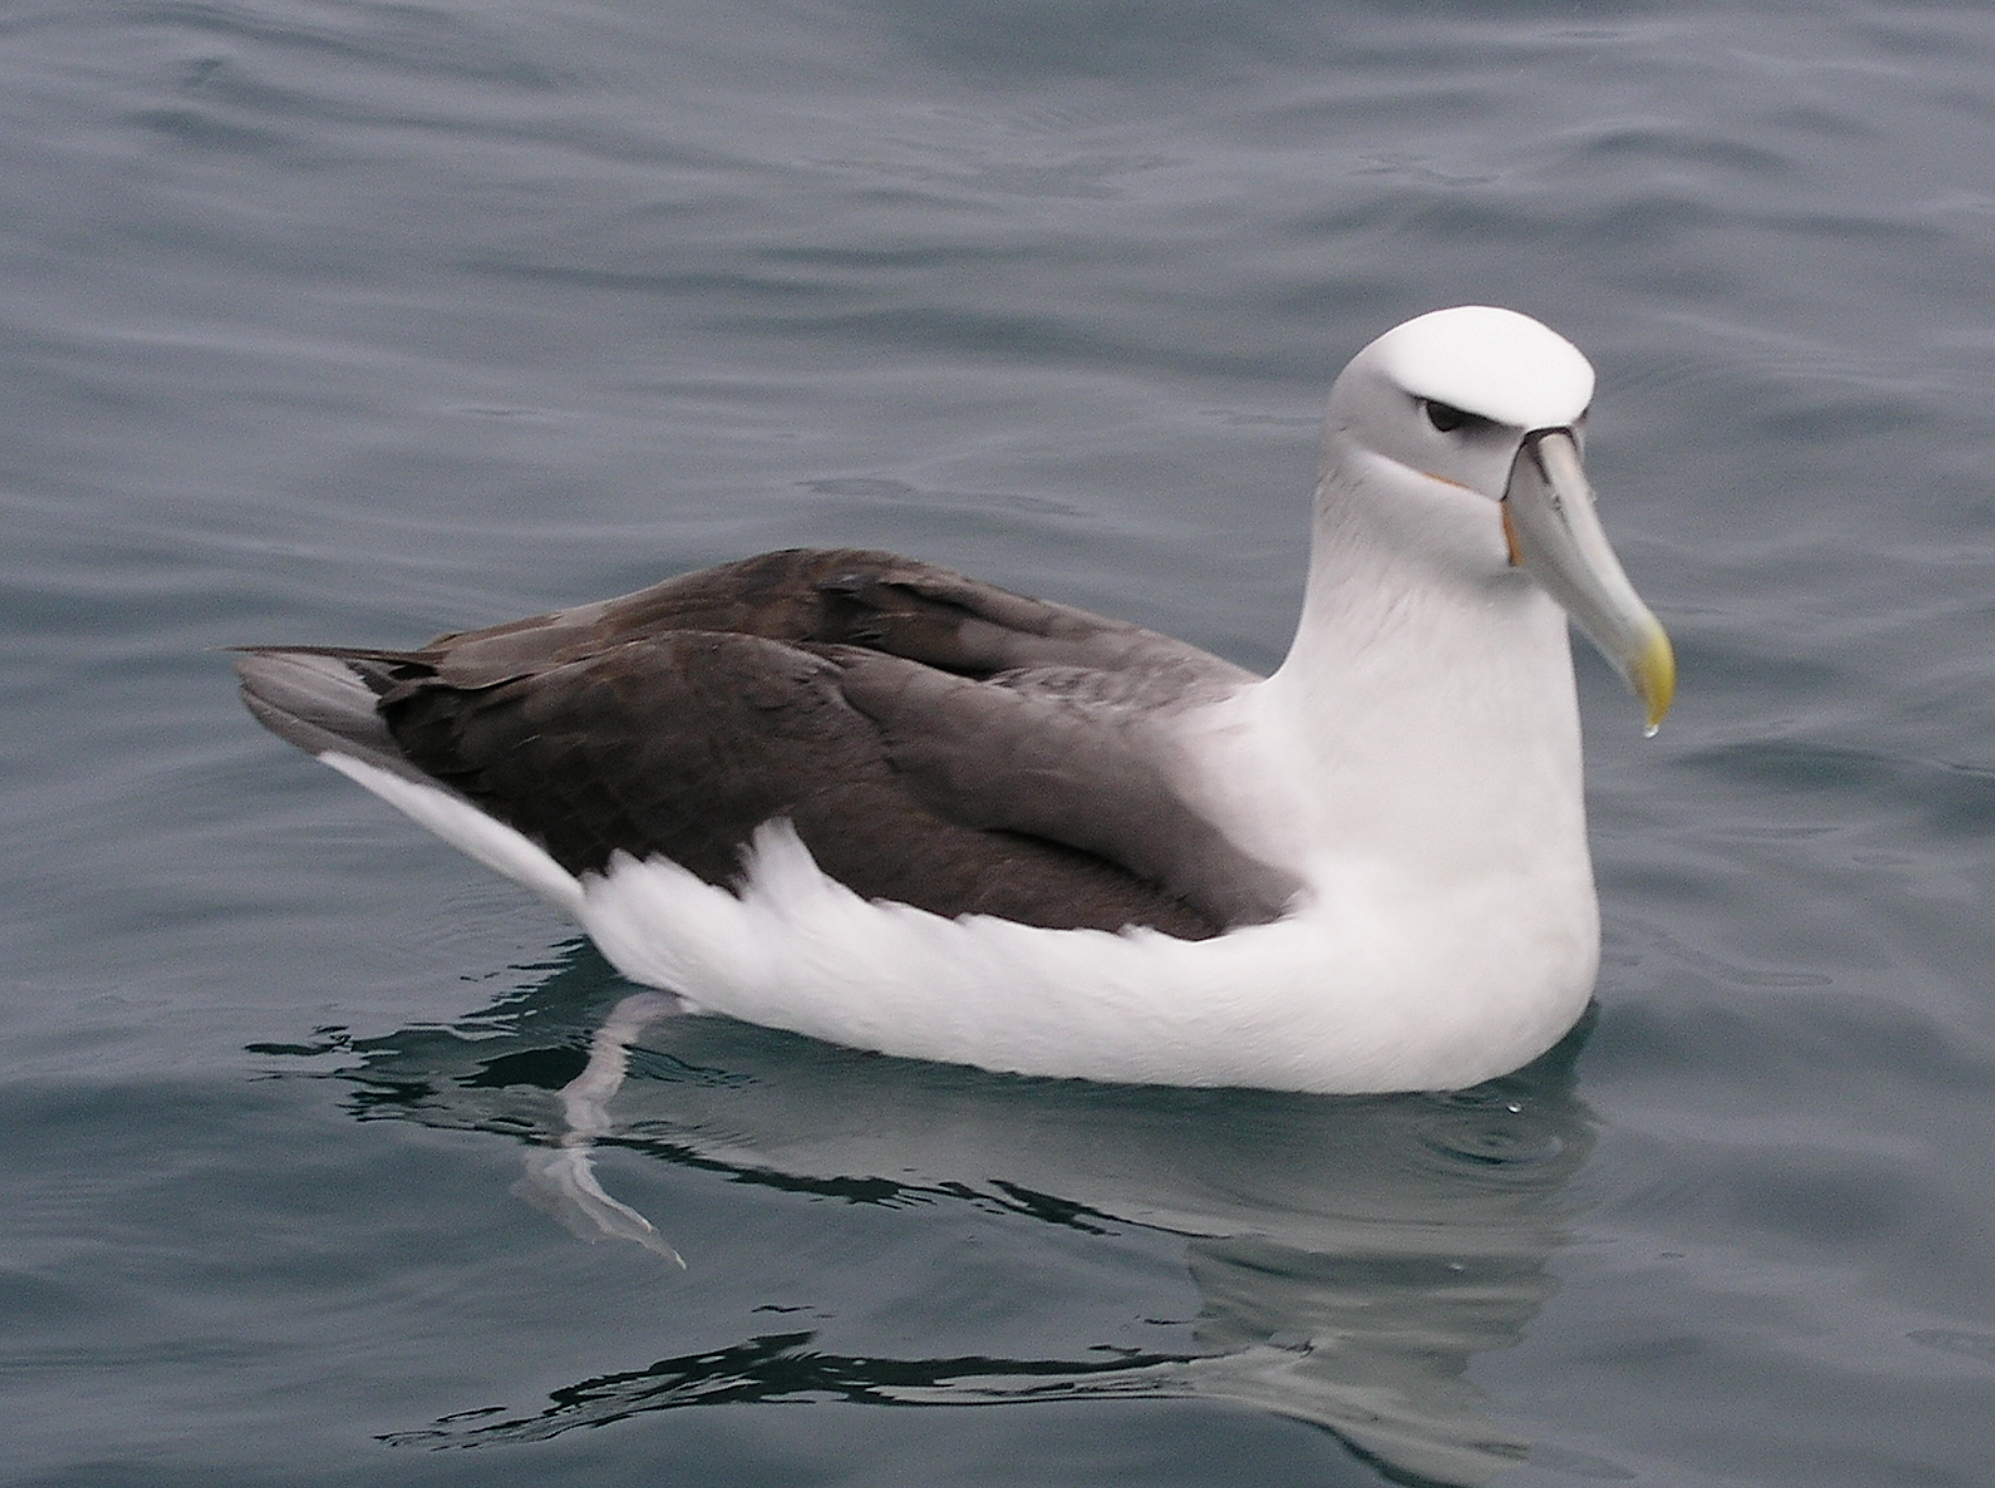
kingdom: Animalia
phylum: Chordata
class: Aves
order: Procellariiformes
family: Diomedeidae
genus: Thalassarche
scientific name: Thalassarche cauta
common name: Shy albatross
